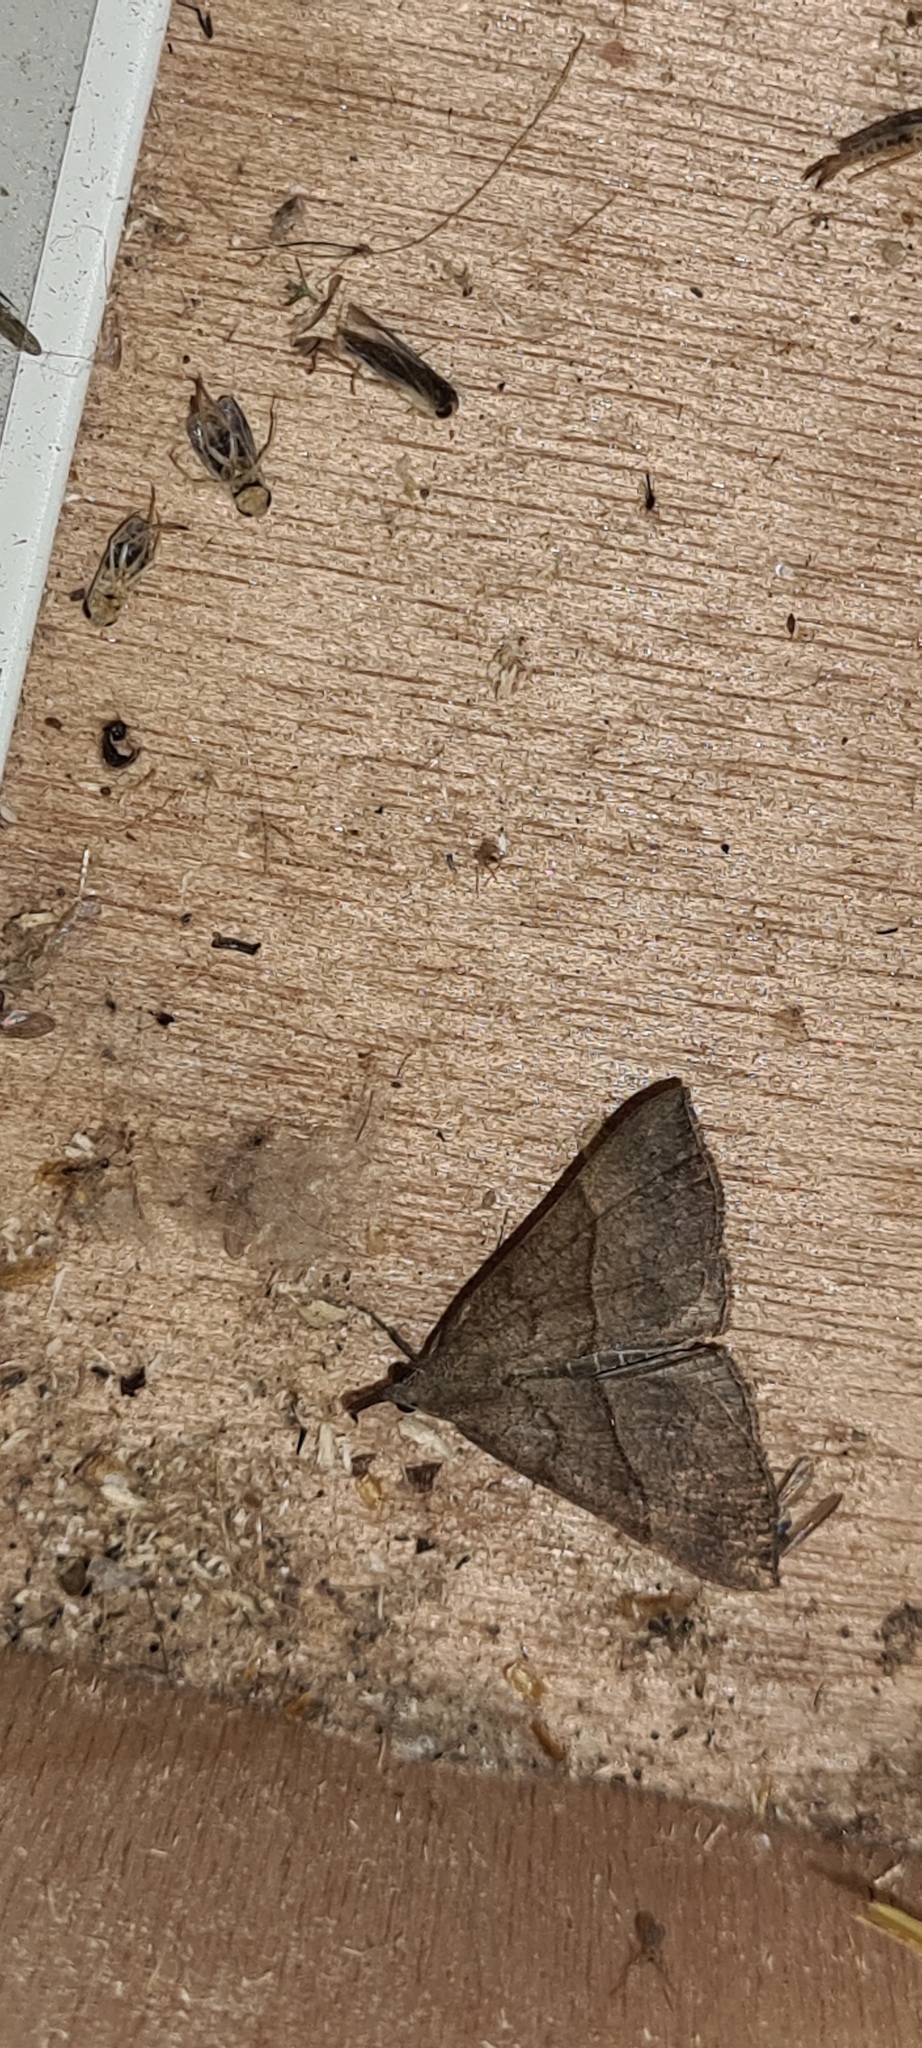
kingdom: Animalia
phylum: Arthropoda
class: Insecta
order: Lepidoptera
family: Erebidae
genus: Hypena
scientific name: Hypena proboscidalis
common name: Snout
